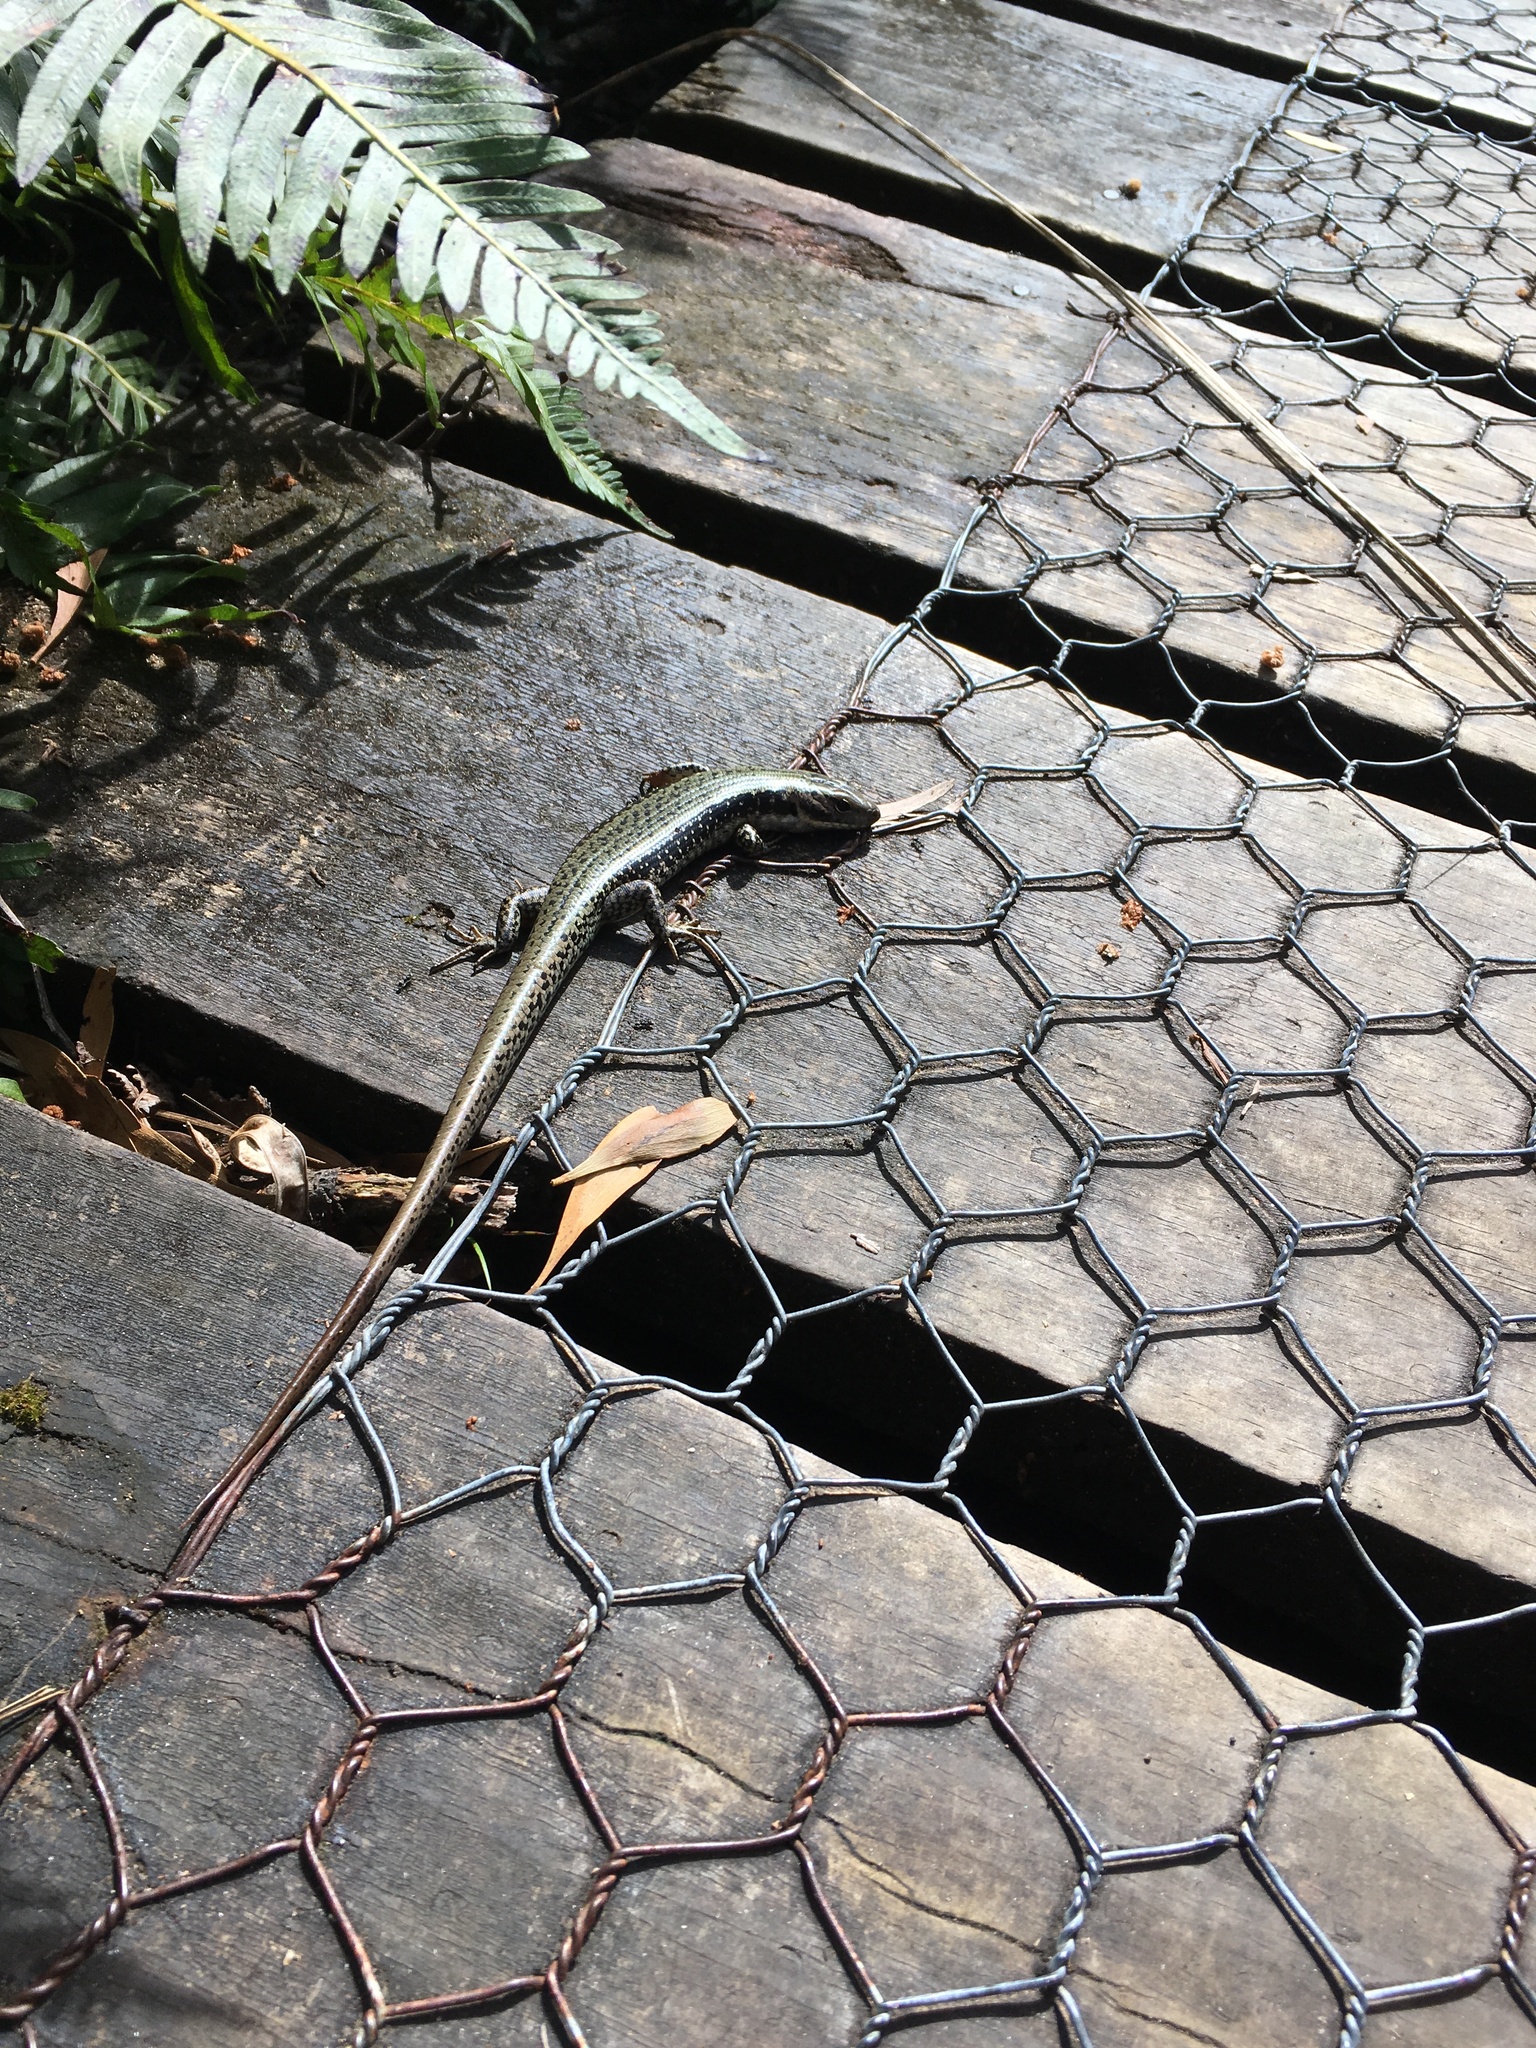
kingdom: Animalia
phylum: Chordata
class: Squamata
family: Scincidae
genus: Eulamprus
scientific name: Eulamprus tympanum
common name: Cool-temperate water-skink
